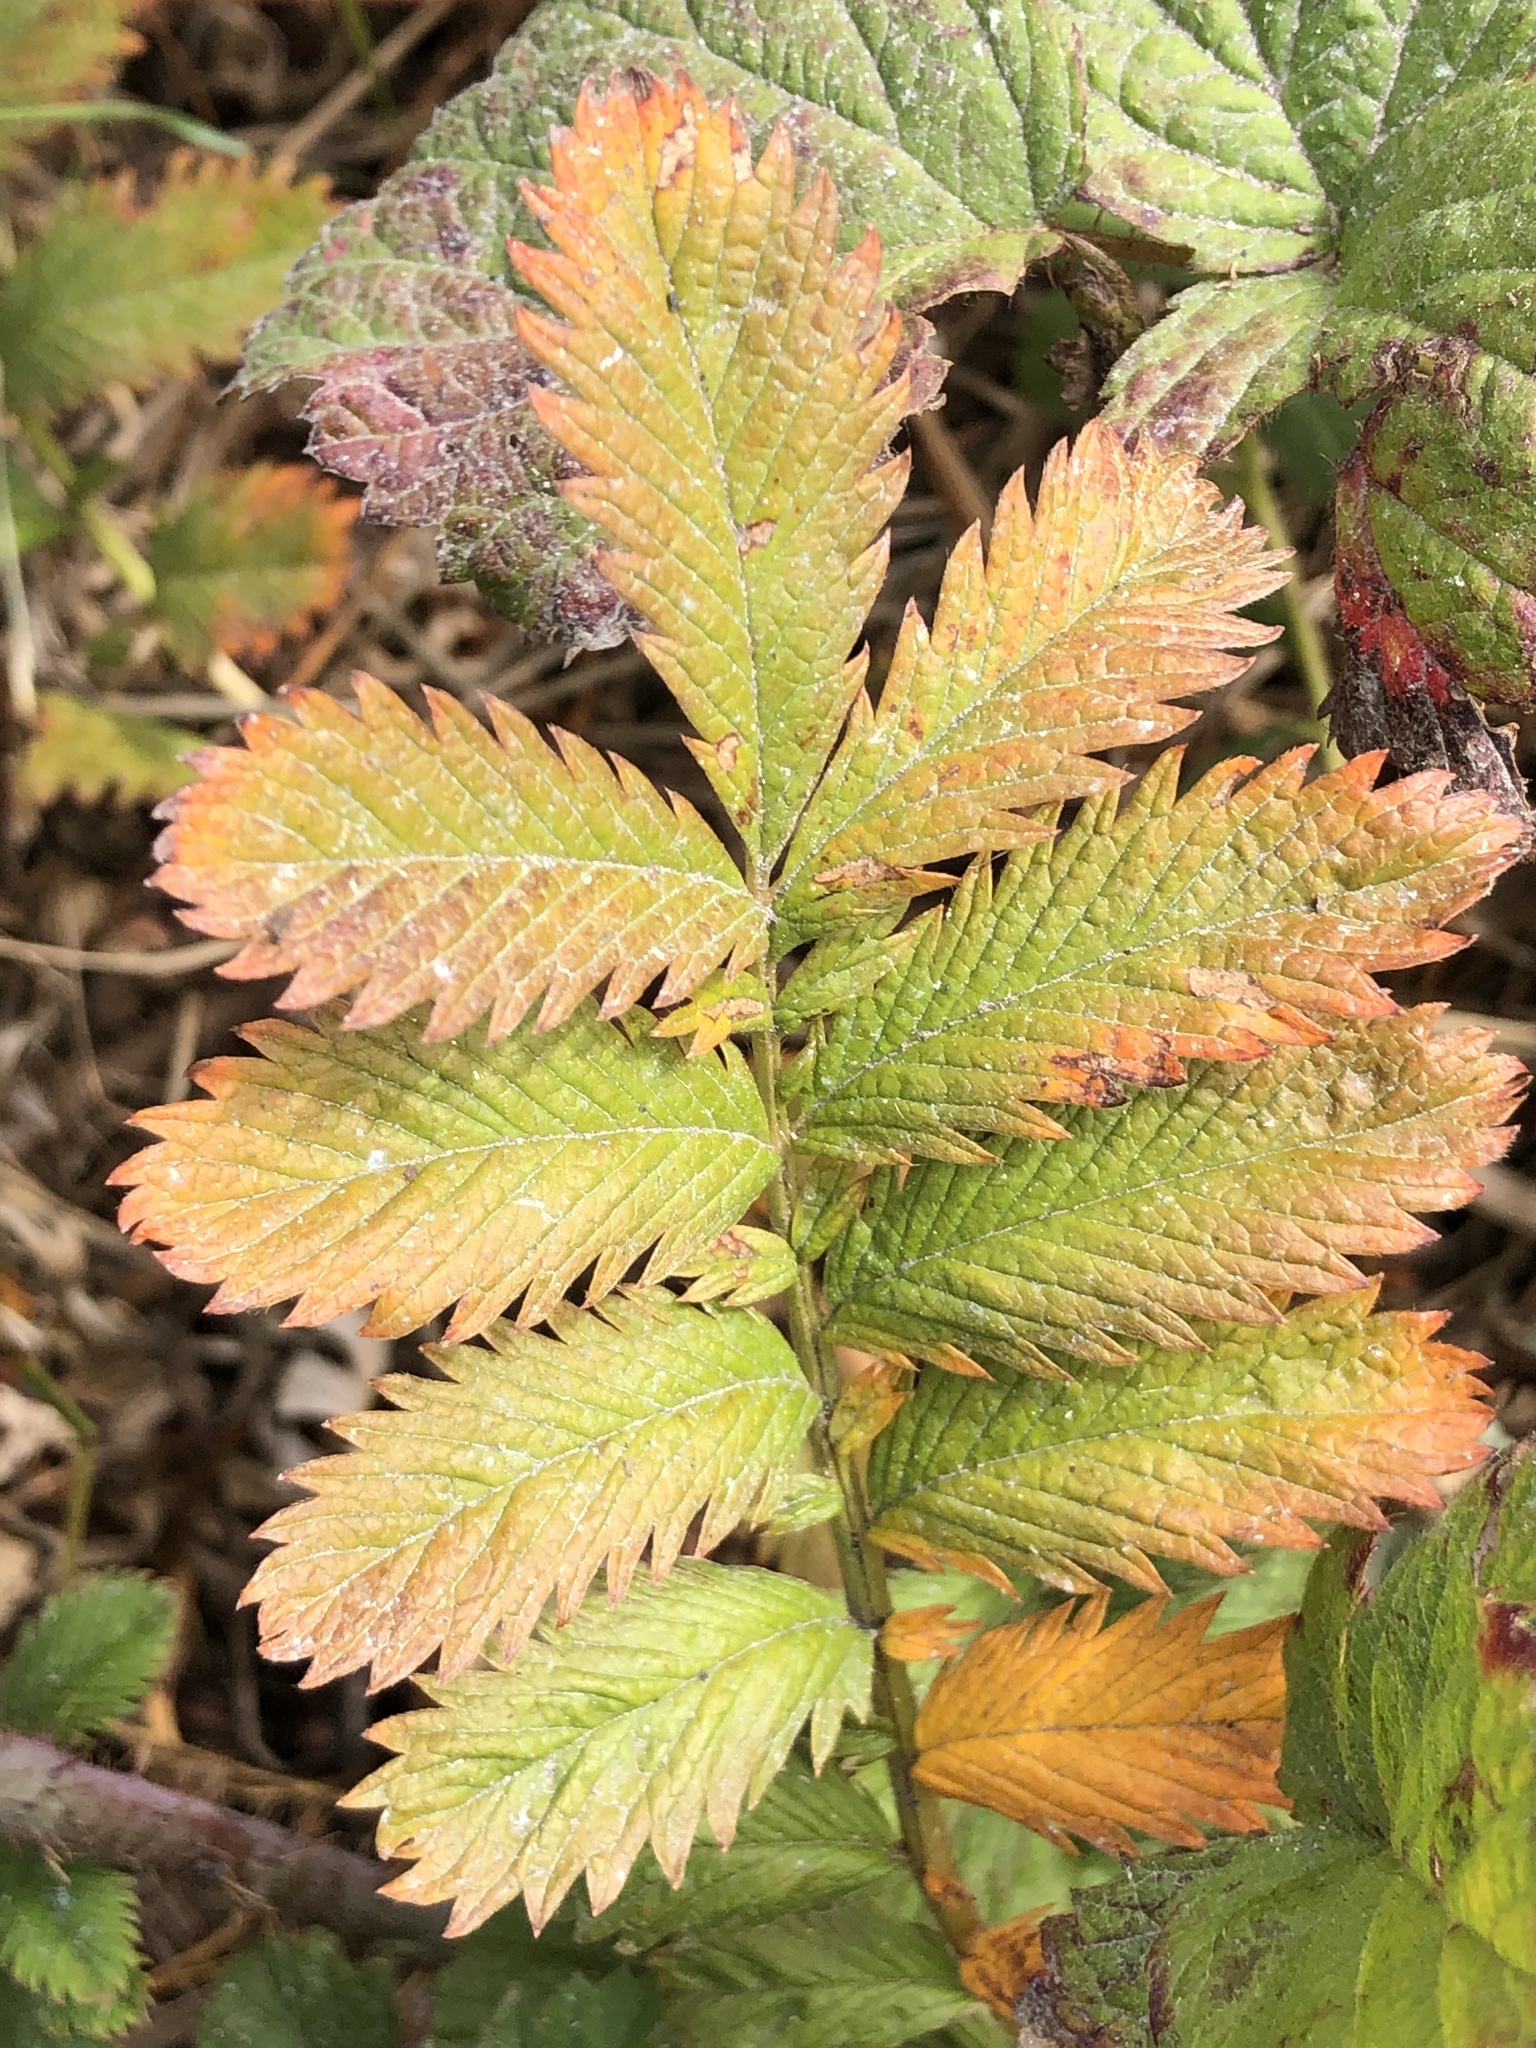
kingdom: Plantae
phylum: Tracheophyta
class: Magnoliopsida
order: Rosales
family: Rosaceae
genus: Argentina
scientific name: Argentina anserina
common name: Common silverweed
